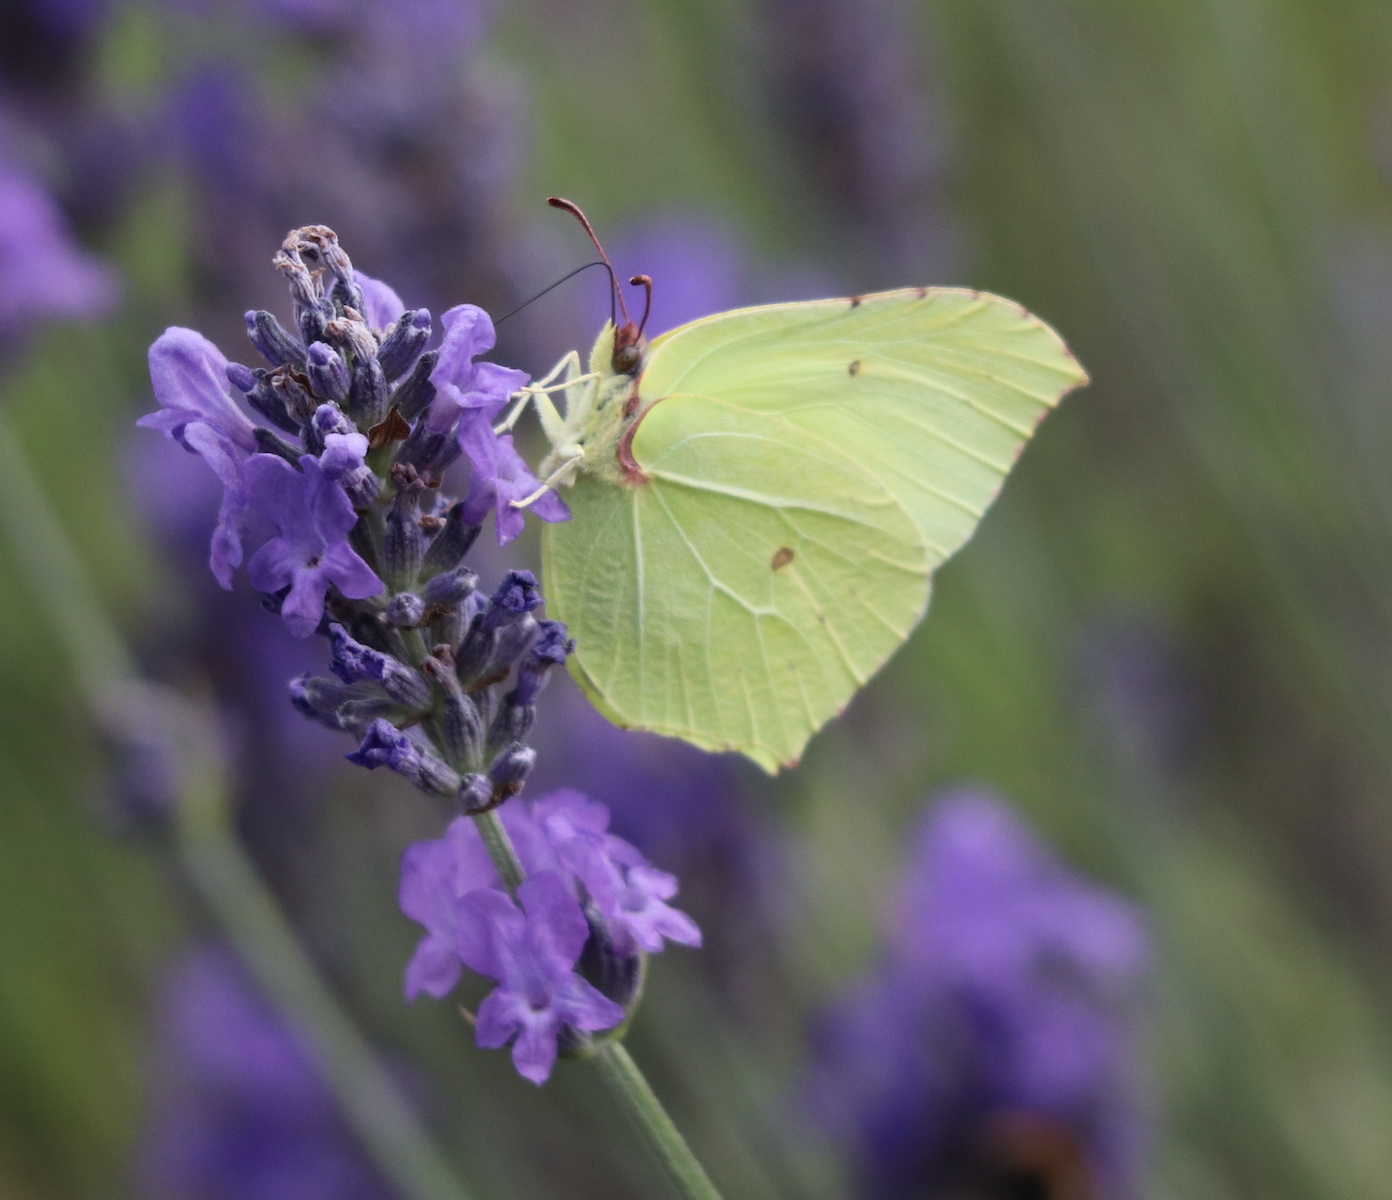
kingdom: Animalia
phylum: Arthropoda
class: Insecta
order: Lepidoptera
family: Pieridae
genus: Gonepteryx
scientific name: Gonepteryx rhamni
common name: Brimstone
